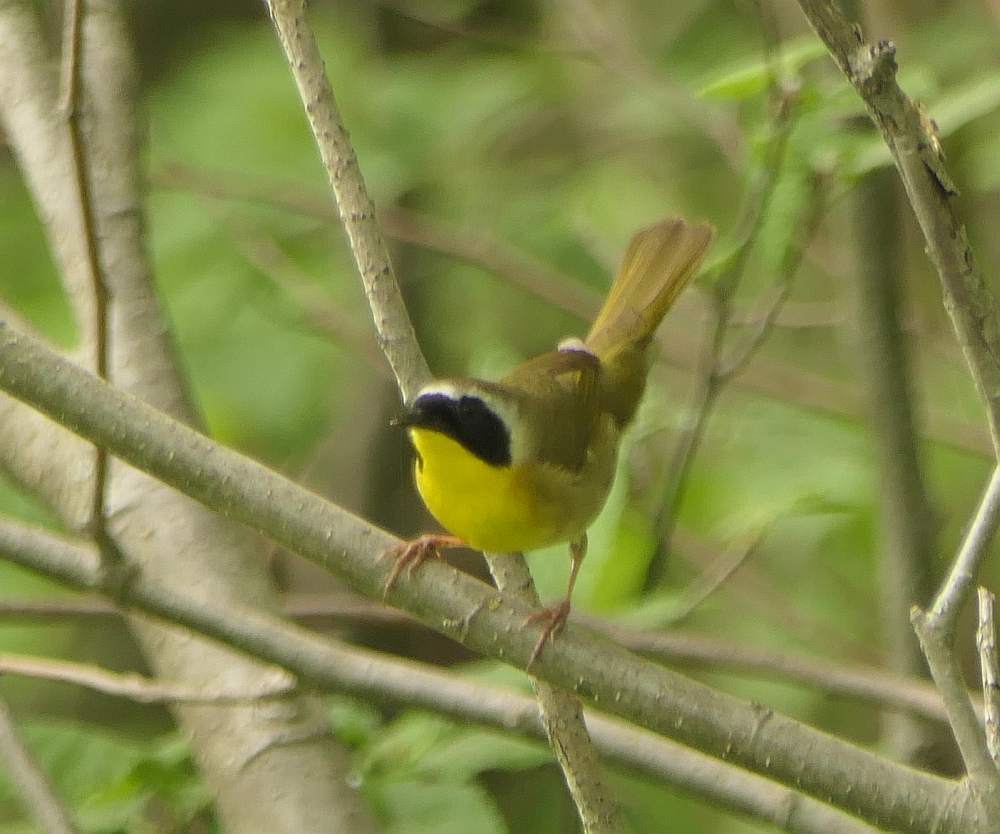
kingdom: Animalia
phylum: Chordata
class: Aves
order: Passeriformes
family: Parulidae
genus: Geothlypis
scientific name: Geothlypis trichas
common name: Common yellowthroat
